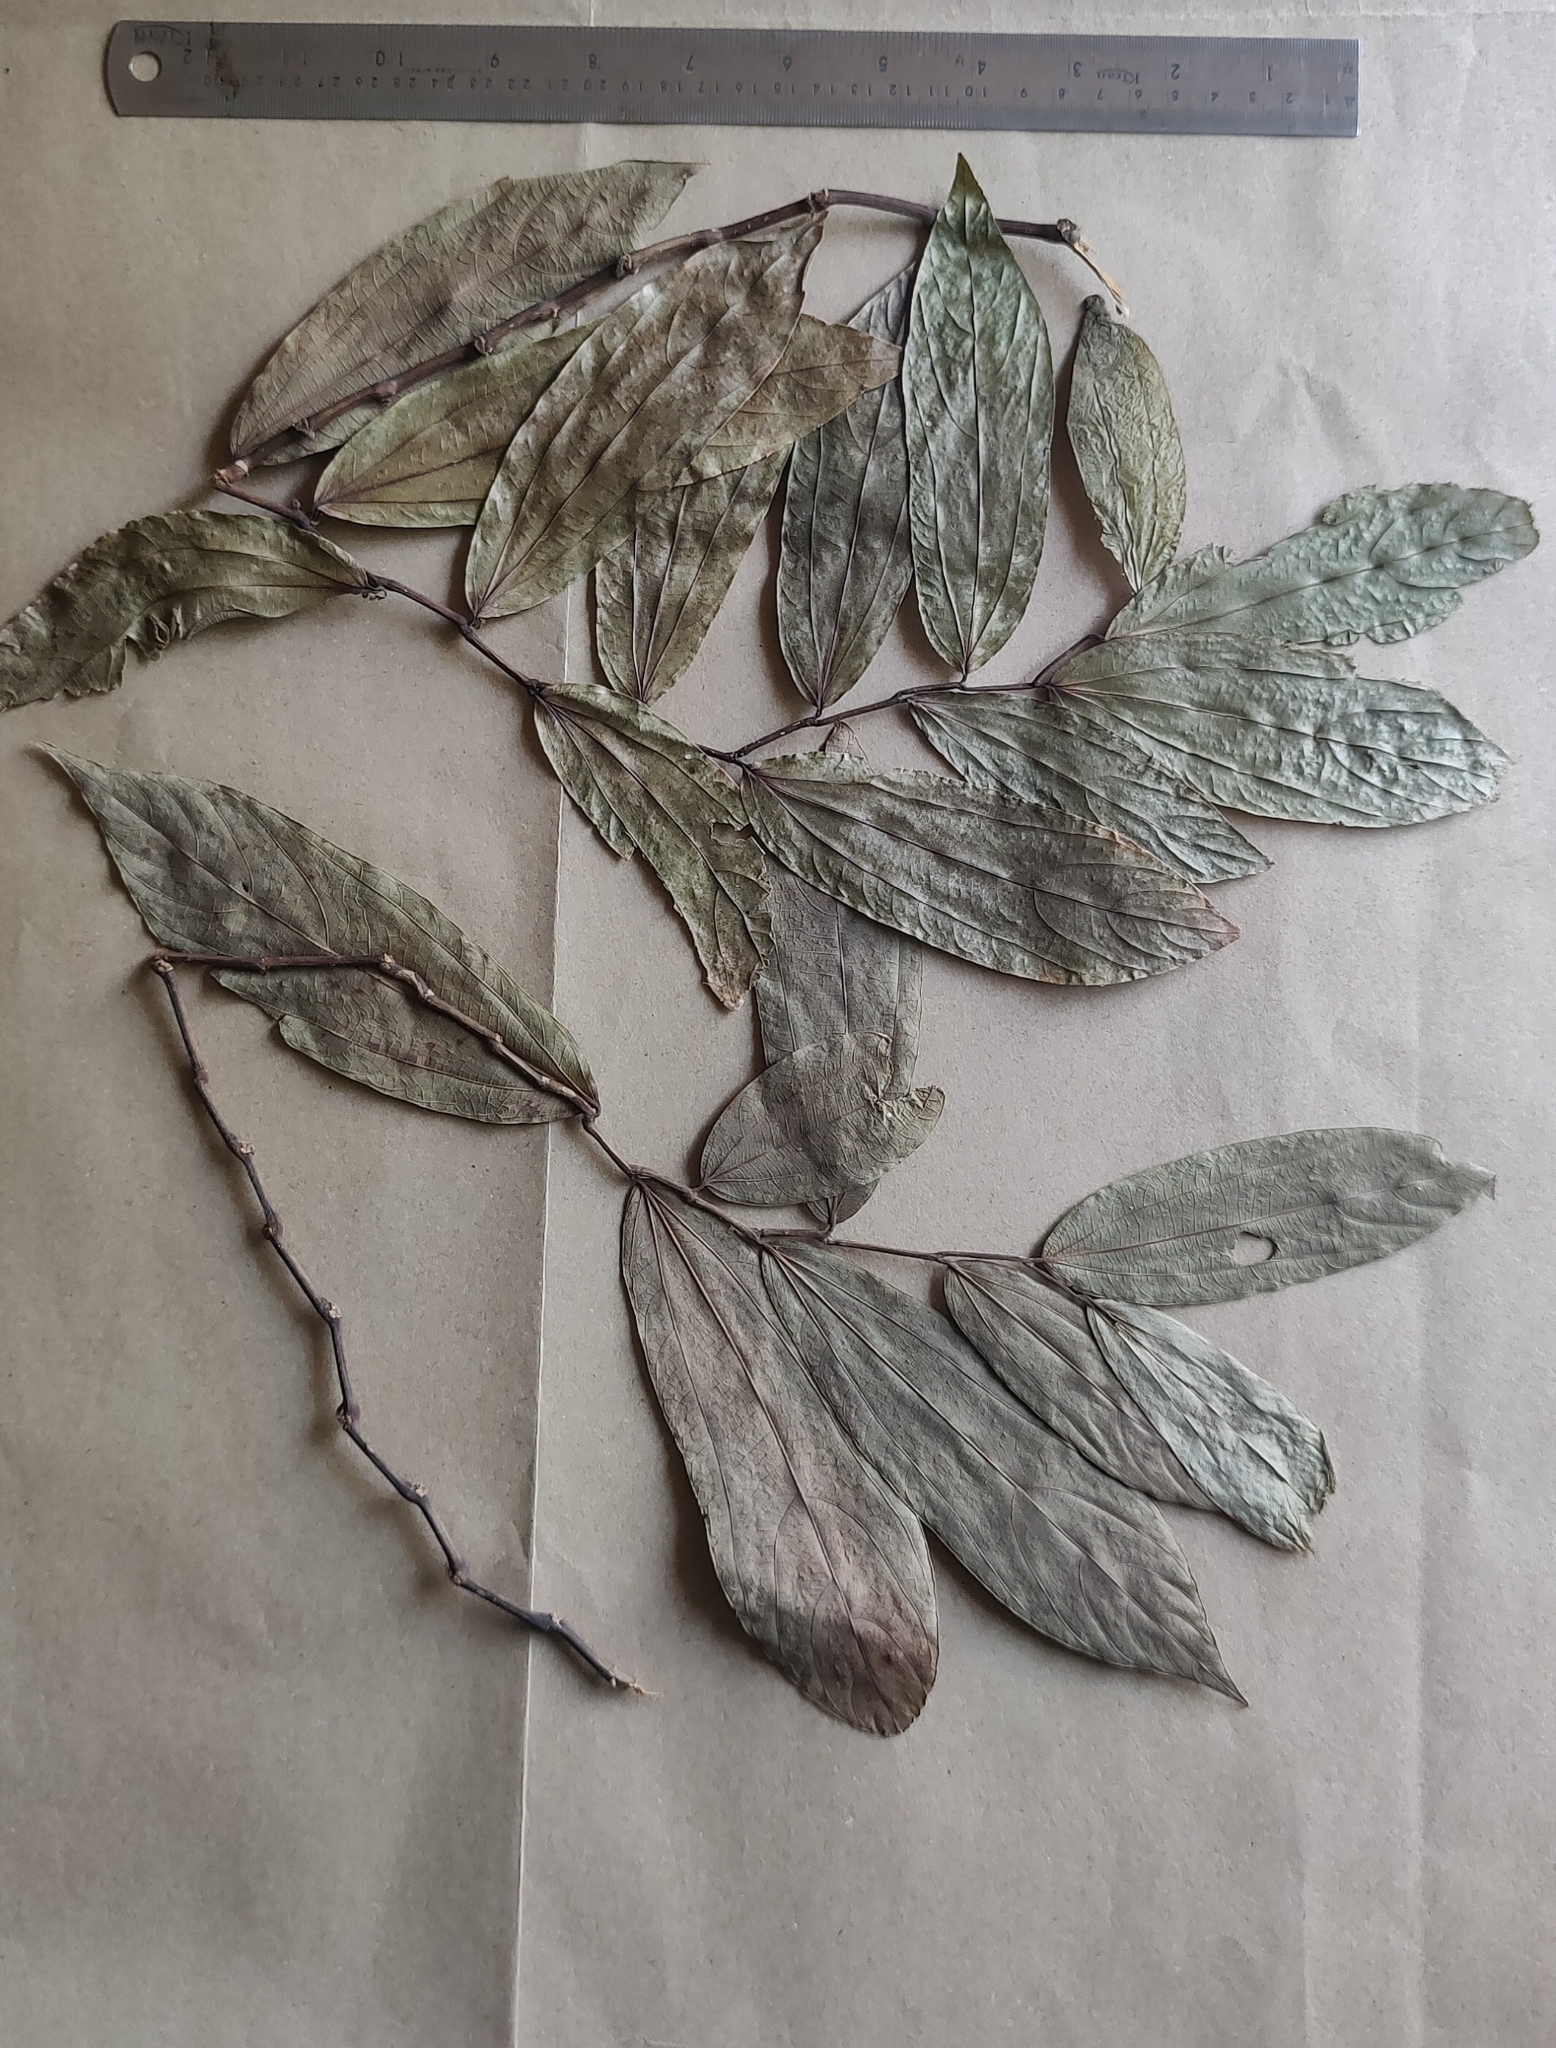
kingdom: Plantae
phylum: Tracheophyta
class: Magnoliopsida
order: Piperales
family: Aristolochiaceae
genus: Thottea
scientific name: Thottea siliquosa
